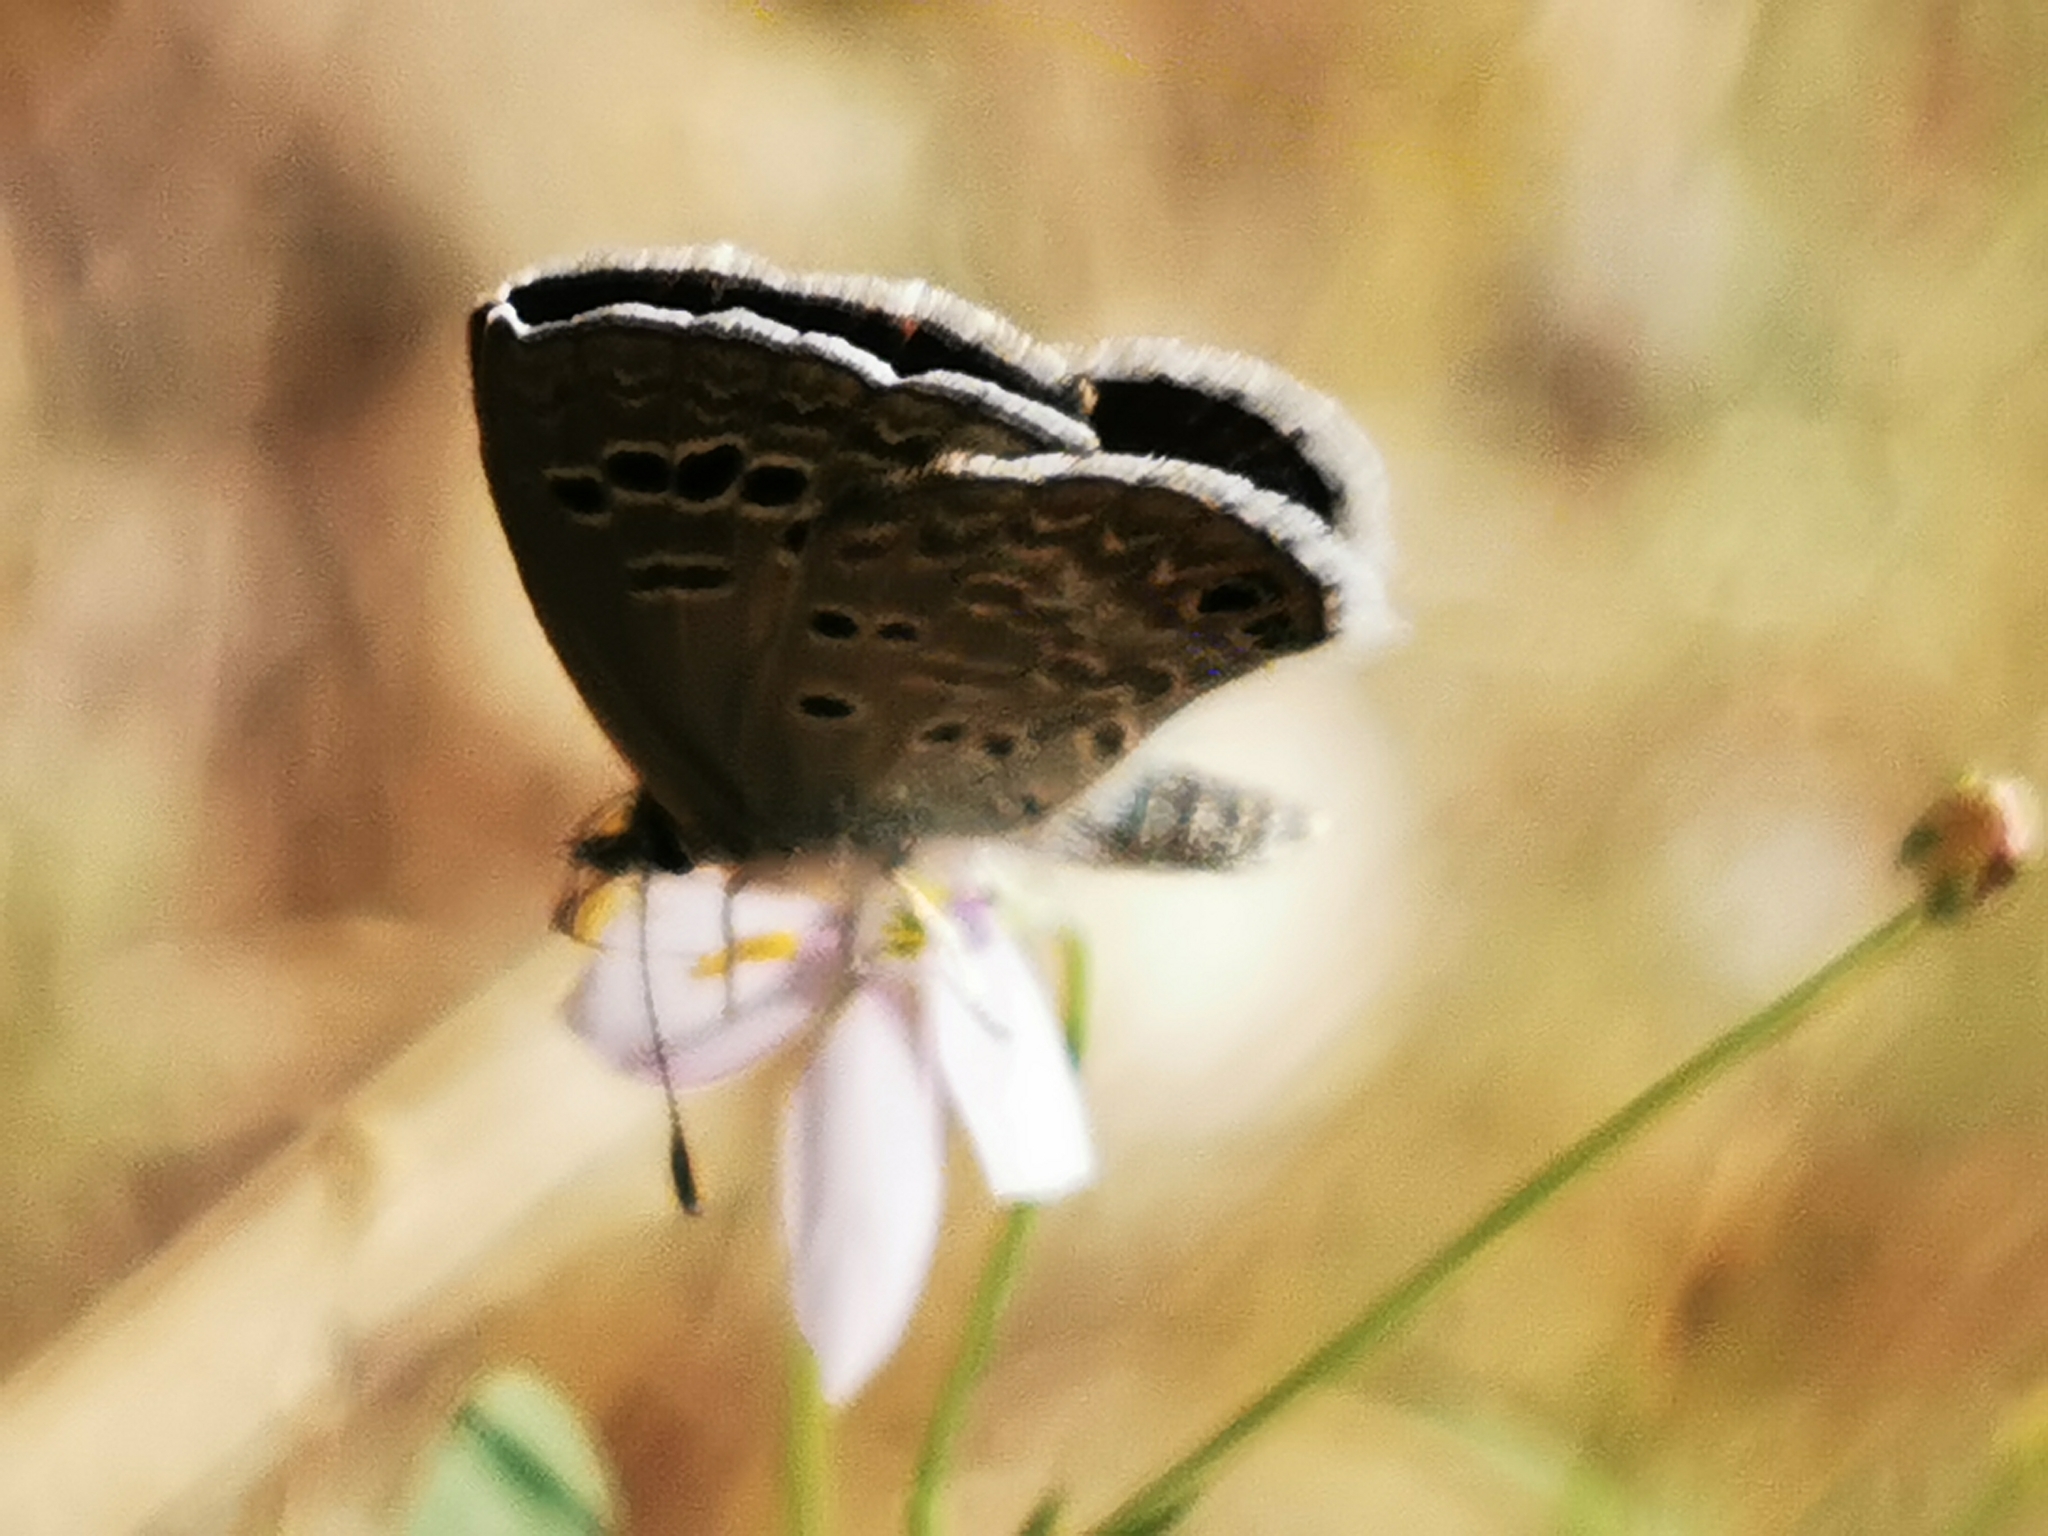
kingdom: Animalia
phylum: Arthropoda
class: Insecta
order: Lepidoptera
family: Lycaenidae
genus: Echinargus
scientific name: Echinargus isola
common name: Reakirt's blue
